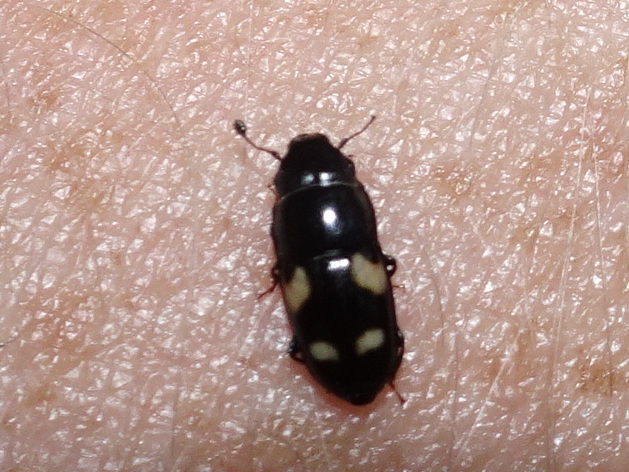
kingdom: Animalia
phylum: Arthropoda
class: Insecta
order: Coleoptera
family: Nitidulidae
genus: Glischrochilus
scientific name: Glischrochilus quadrisignatus
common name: Picnic beetle
